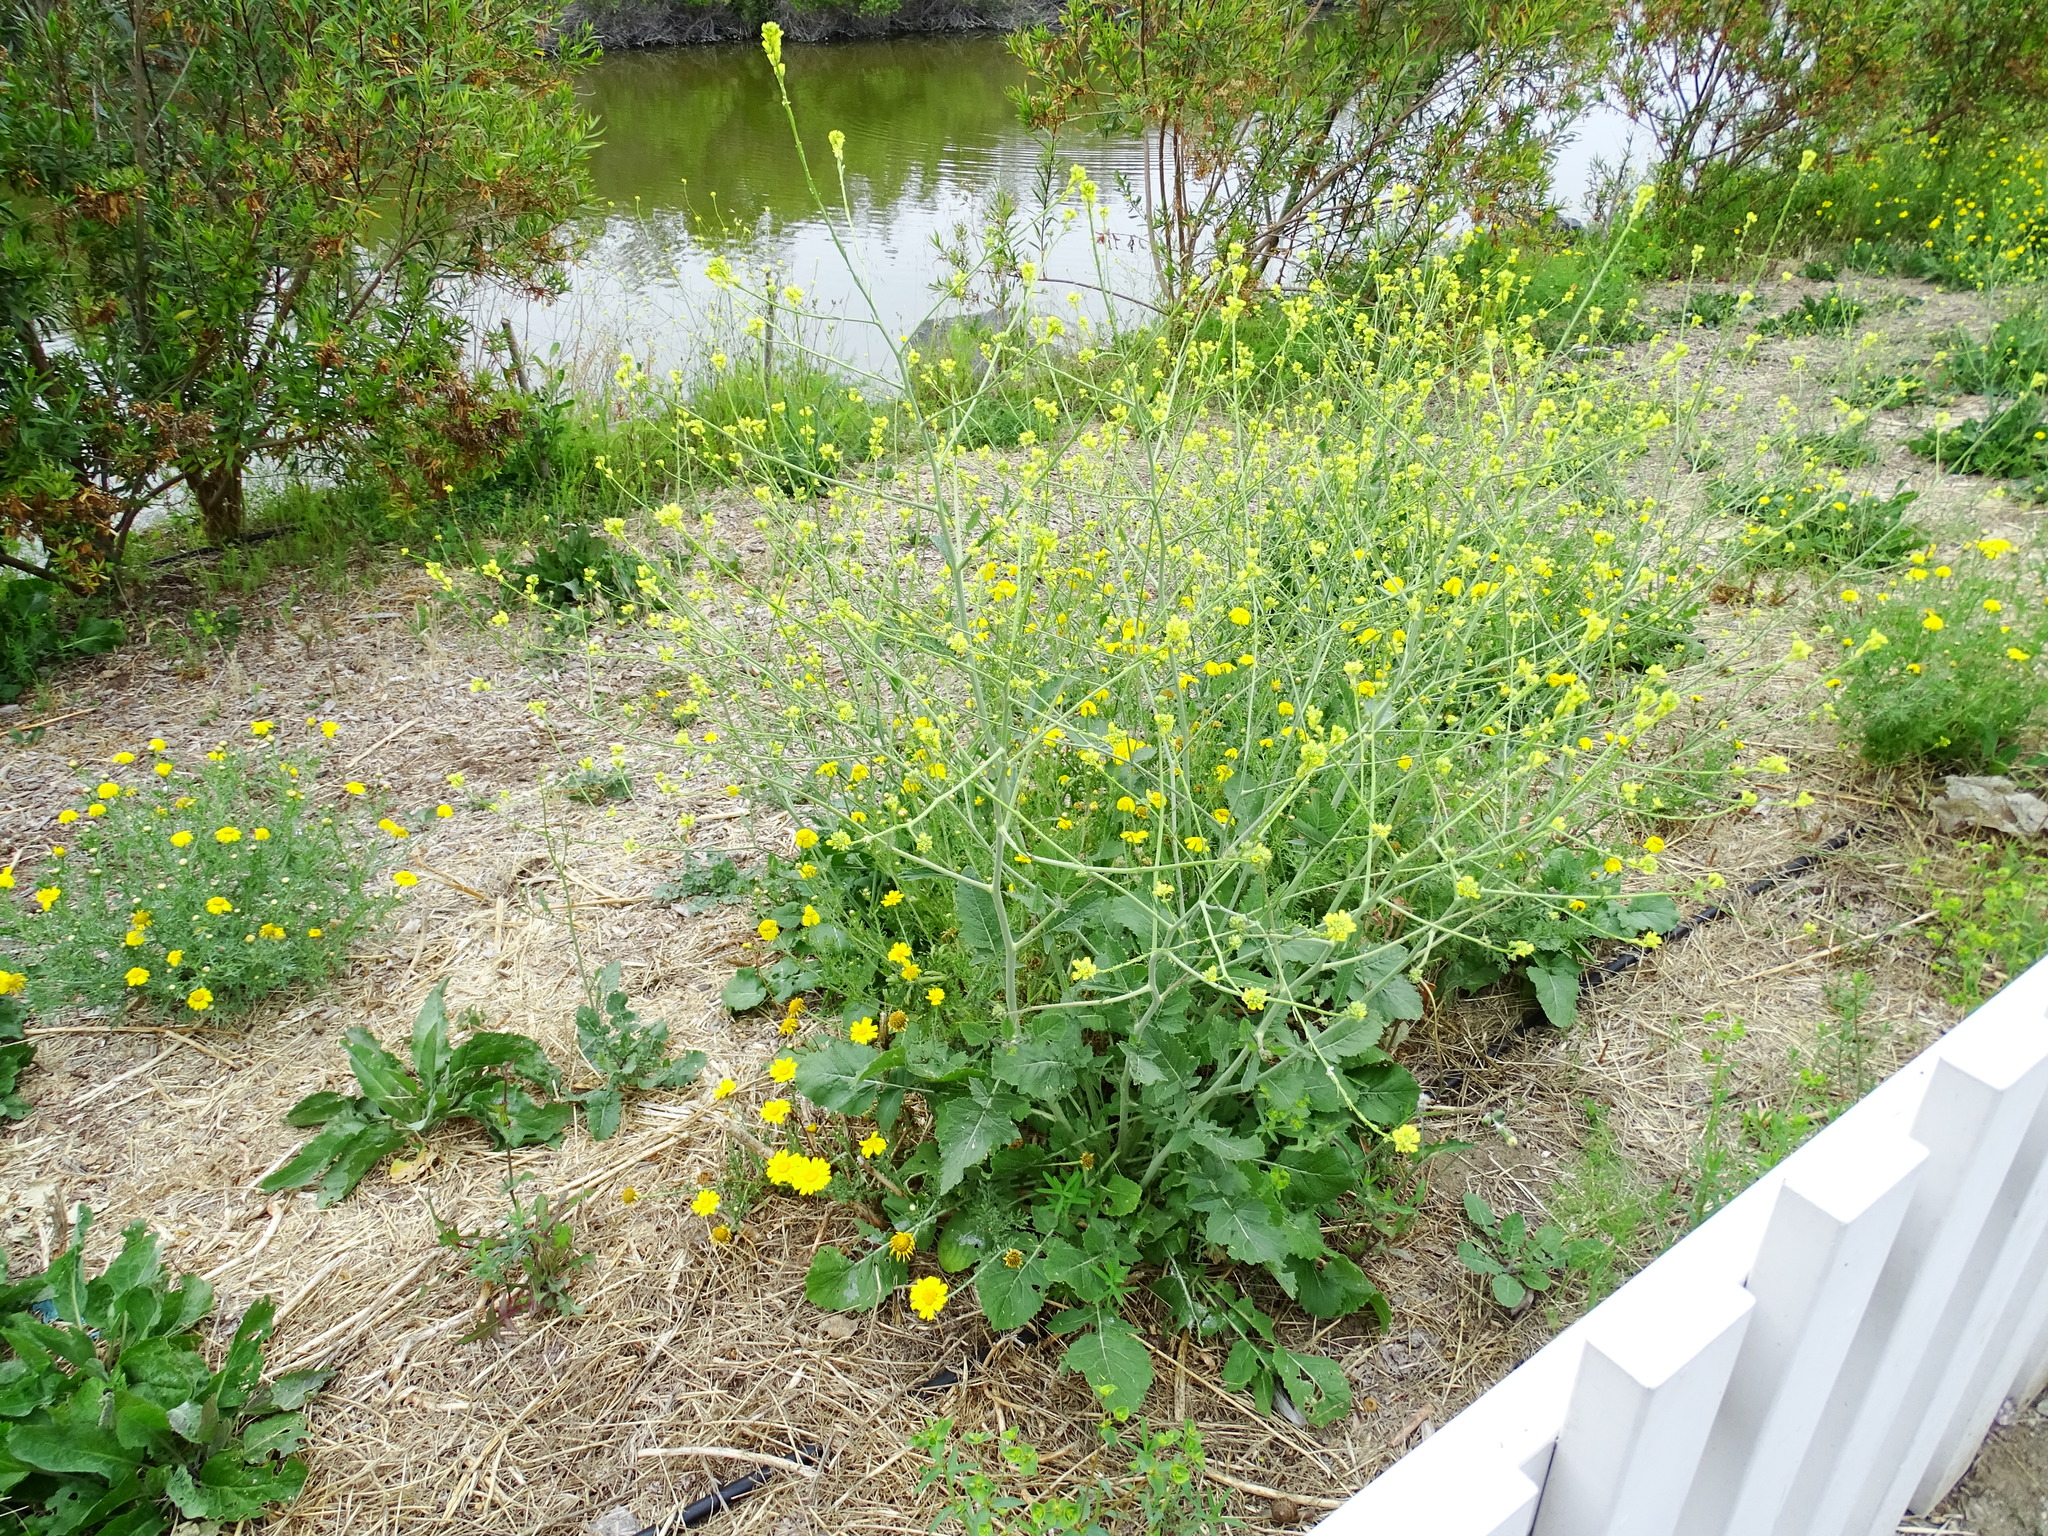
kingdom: Plantae
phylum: Tracheophyta
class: Magnoliopsida
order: Brassicales
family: Brassicaceae
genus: Hirschfeldia
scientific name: Hirschfeldia incana
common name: Hoary mustard
